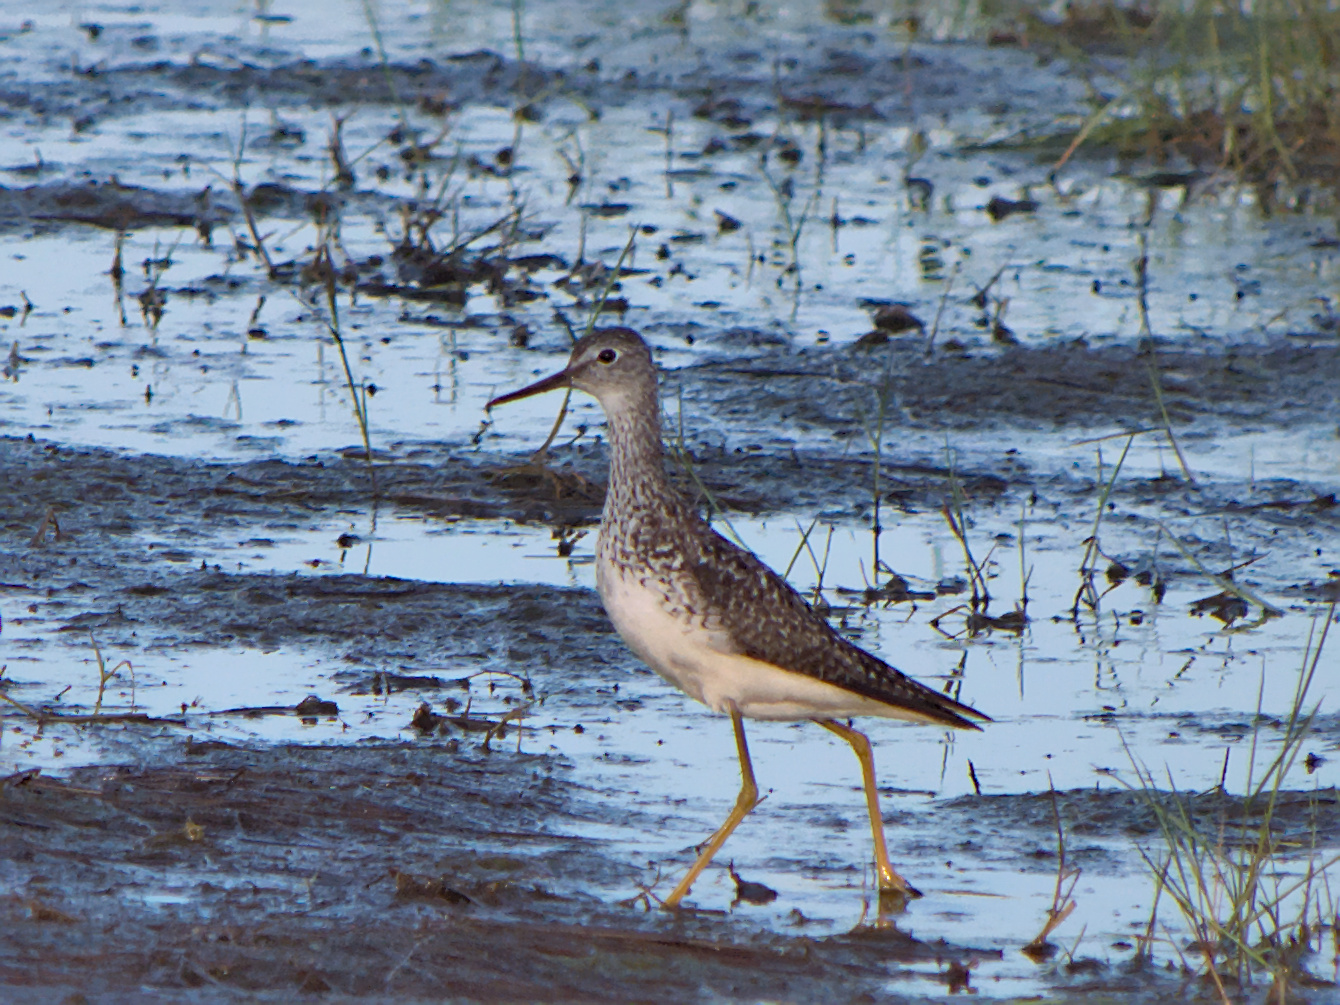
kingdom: Animalia
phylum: Chordata
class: Aves
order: Charadriiformes
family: Scolopacidae
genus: Tringa
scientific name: Tringa flavipes
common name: Lesser yellowlegs
